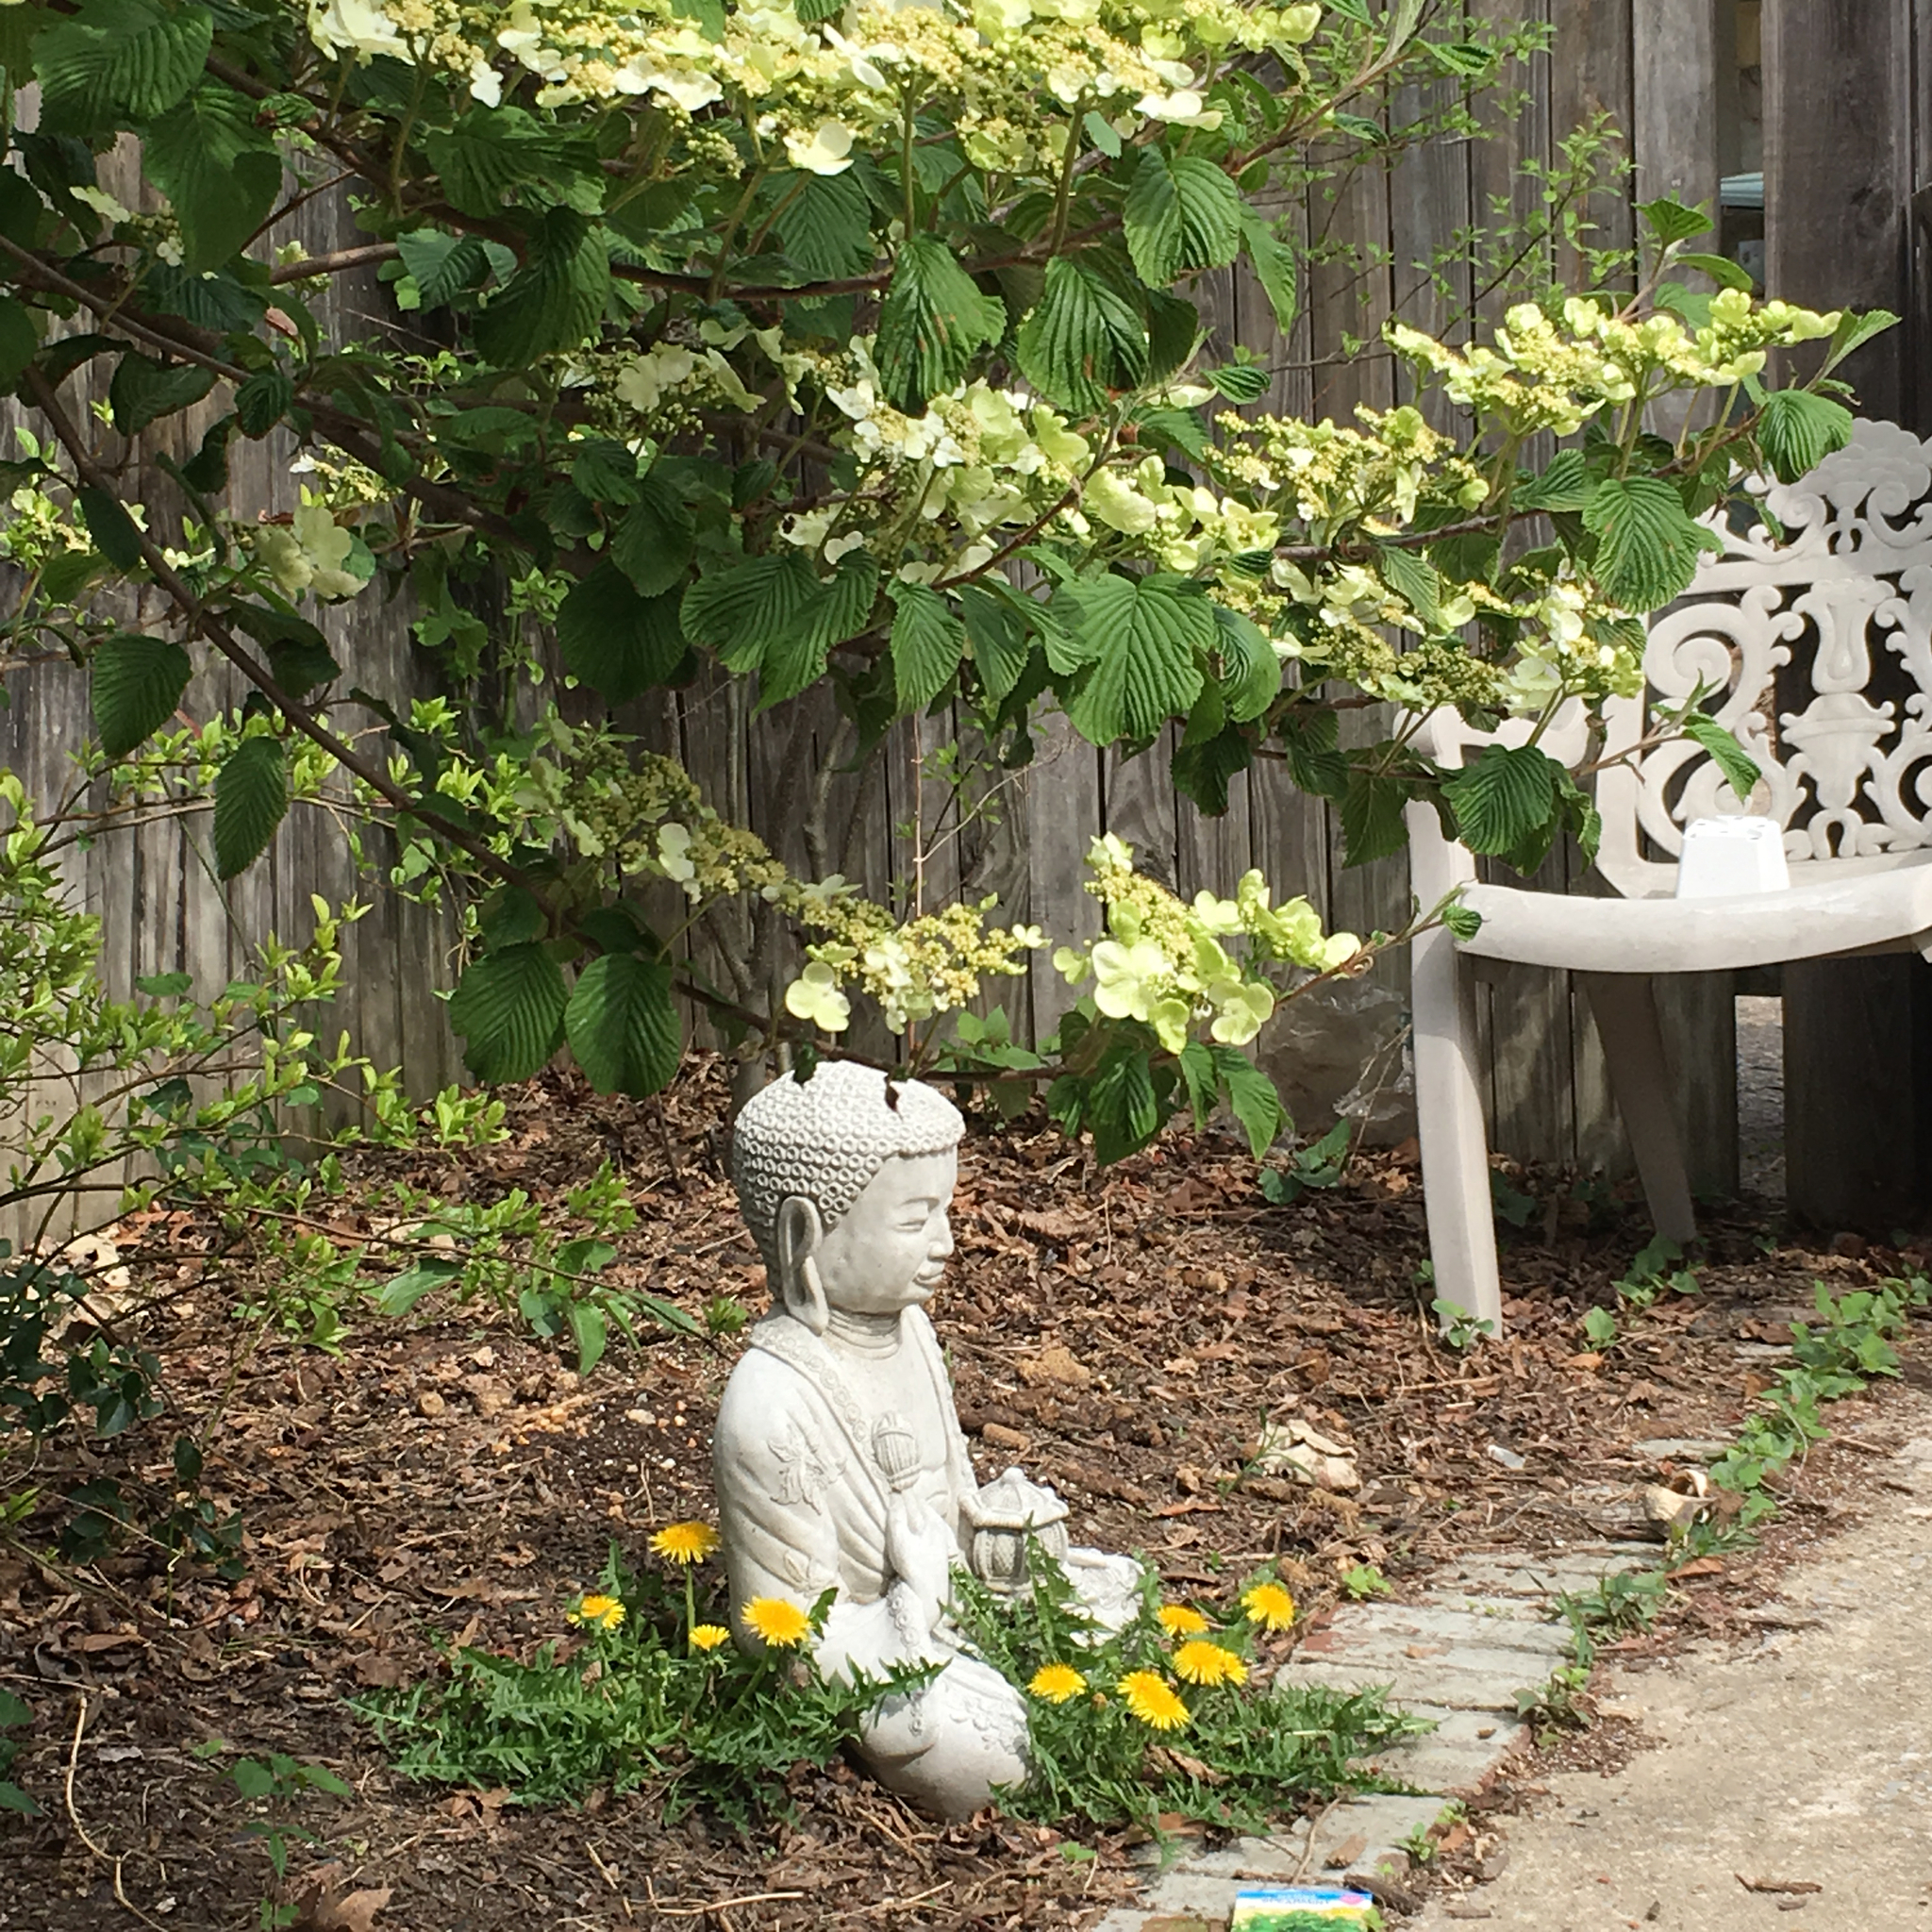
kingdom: Plantae
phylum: Tracheophyta
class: Magnoliopsida
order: Asterales
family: Asteraceae
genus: Taraxacum
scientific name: Taraxacum
